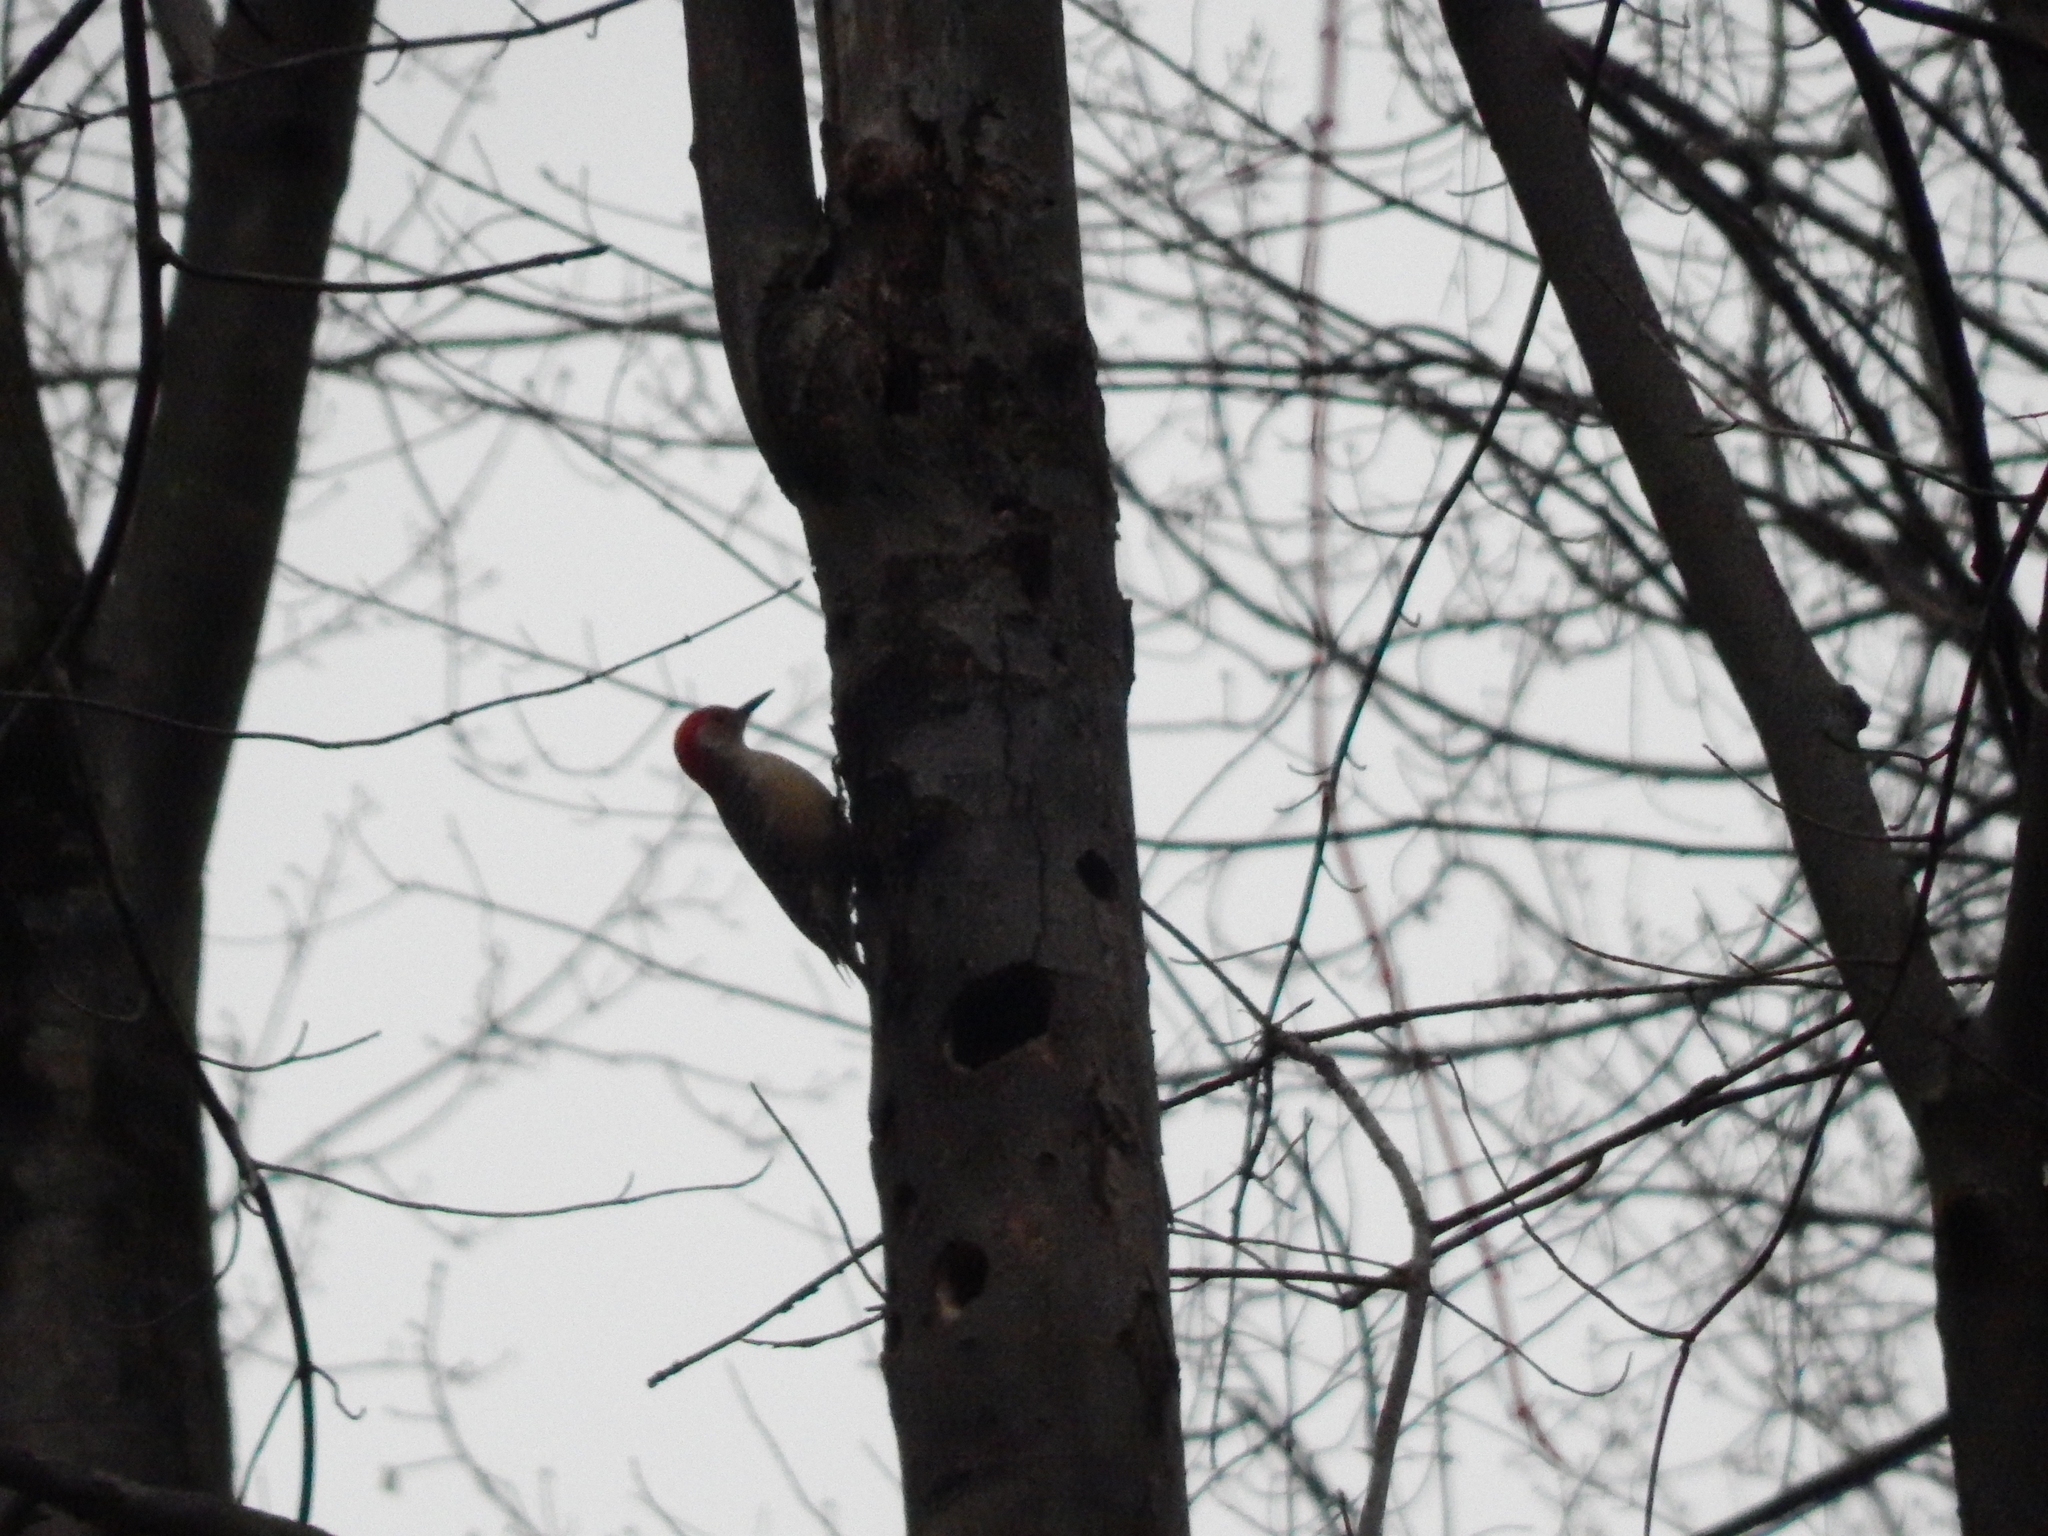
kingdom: Animalia
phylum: Chordata
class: Aves
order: Piciformes
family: Picidae
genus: Melanerpes
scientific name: Melanerpes carolinus
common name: Red-bellied woodpecker
